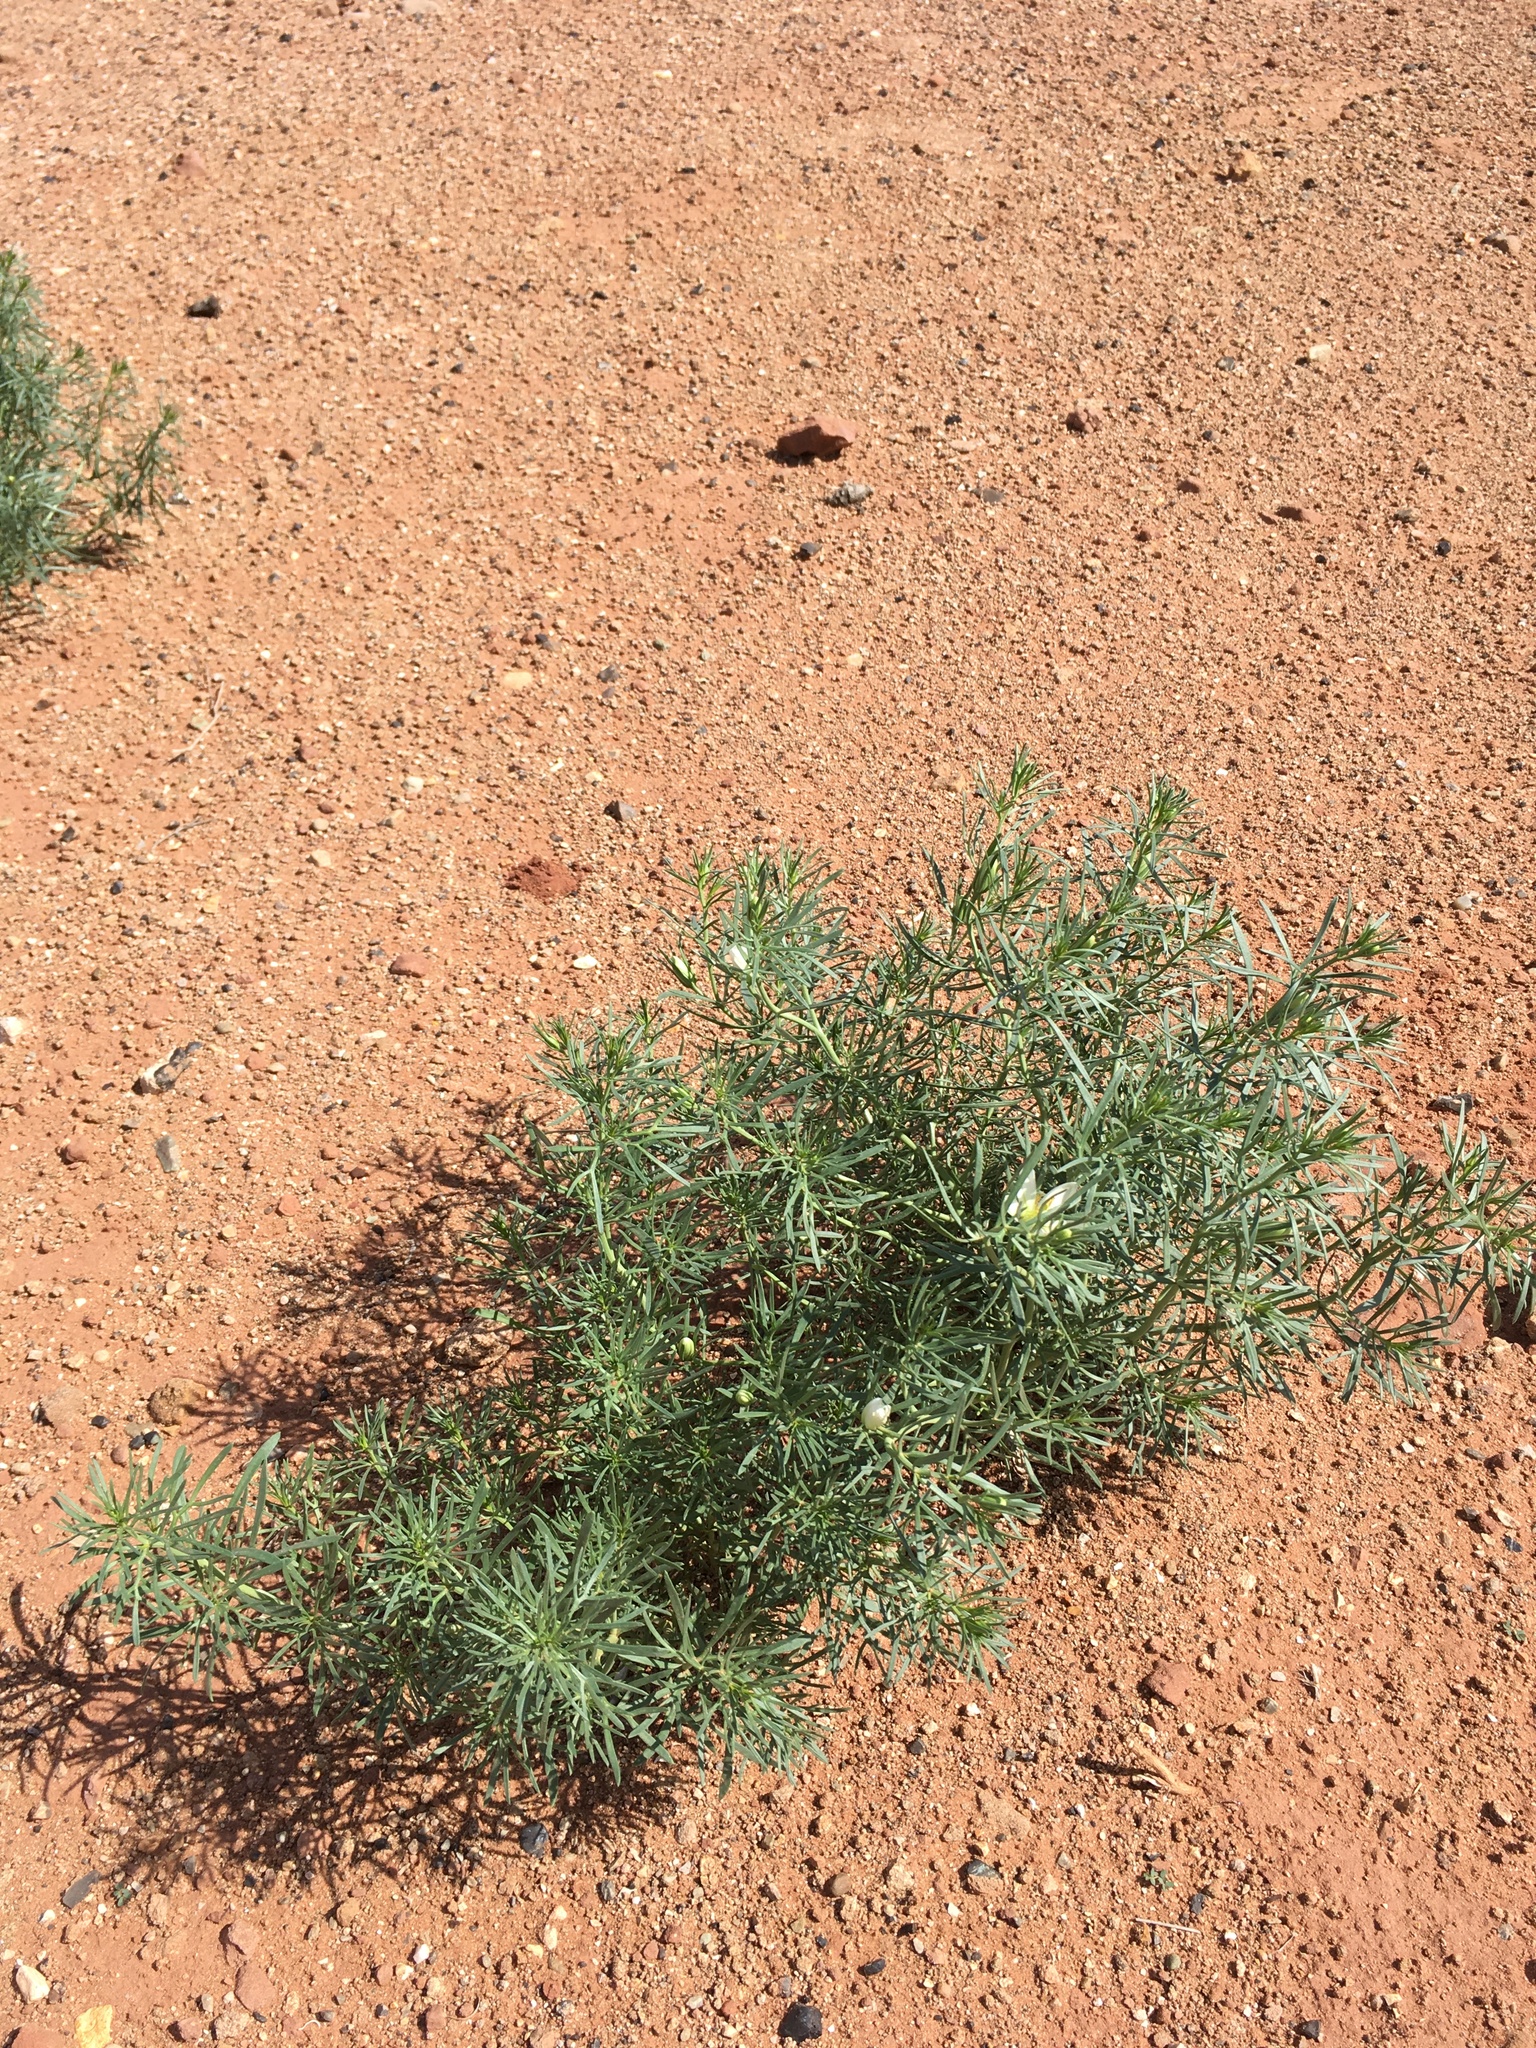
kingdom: Plantae
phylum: Tracheophyta
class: Magnoliopsida
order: Sapindales
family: Tetradiclidaceae
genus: Peganum
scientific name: Peganum harmala
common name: Harmal peganum
